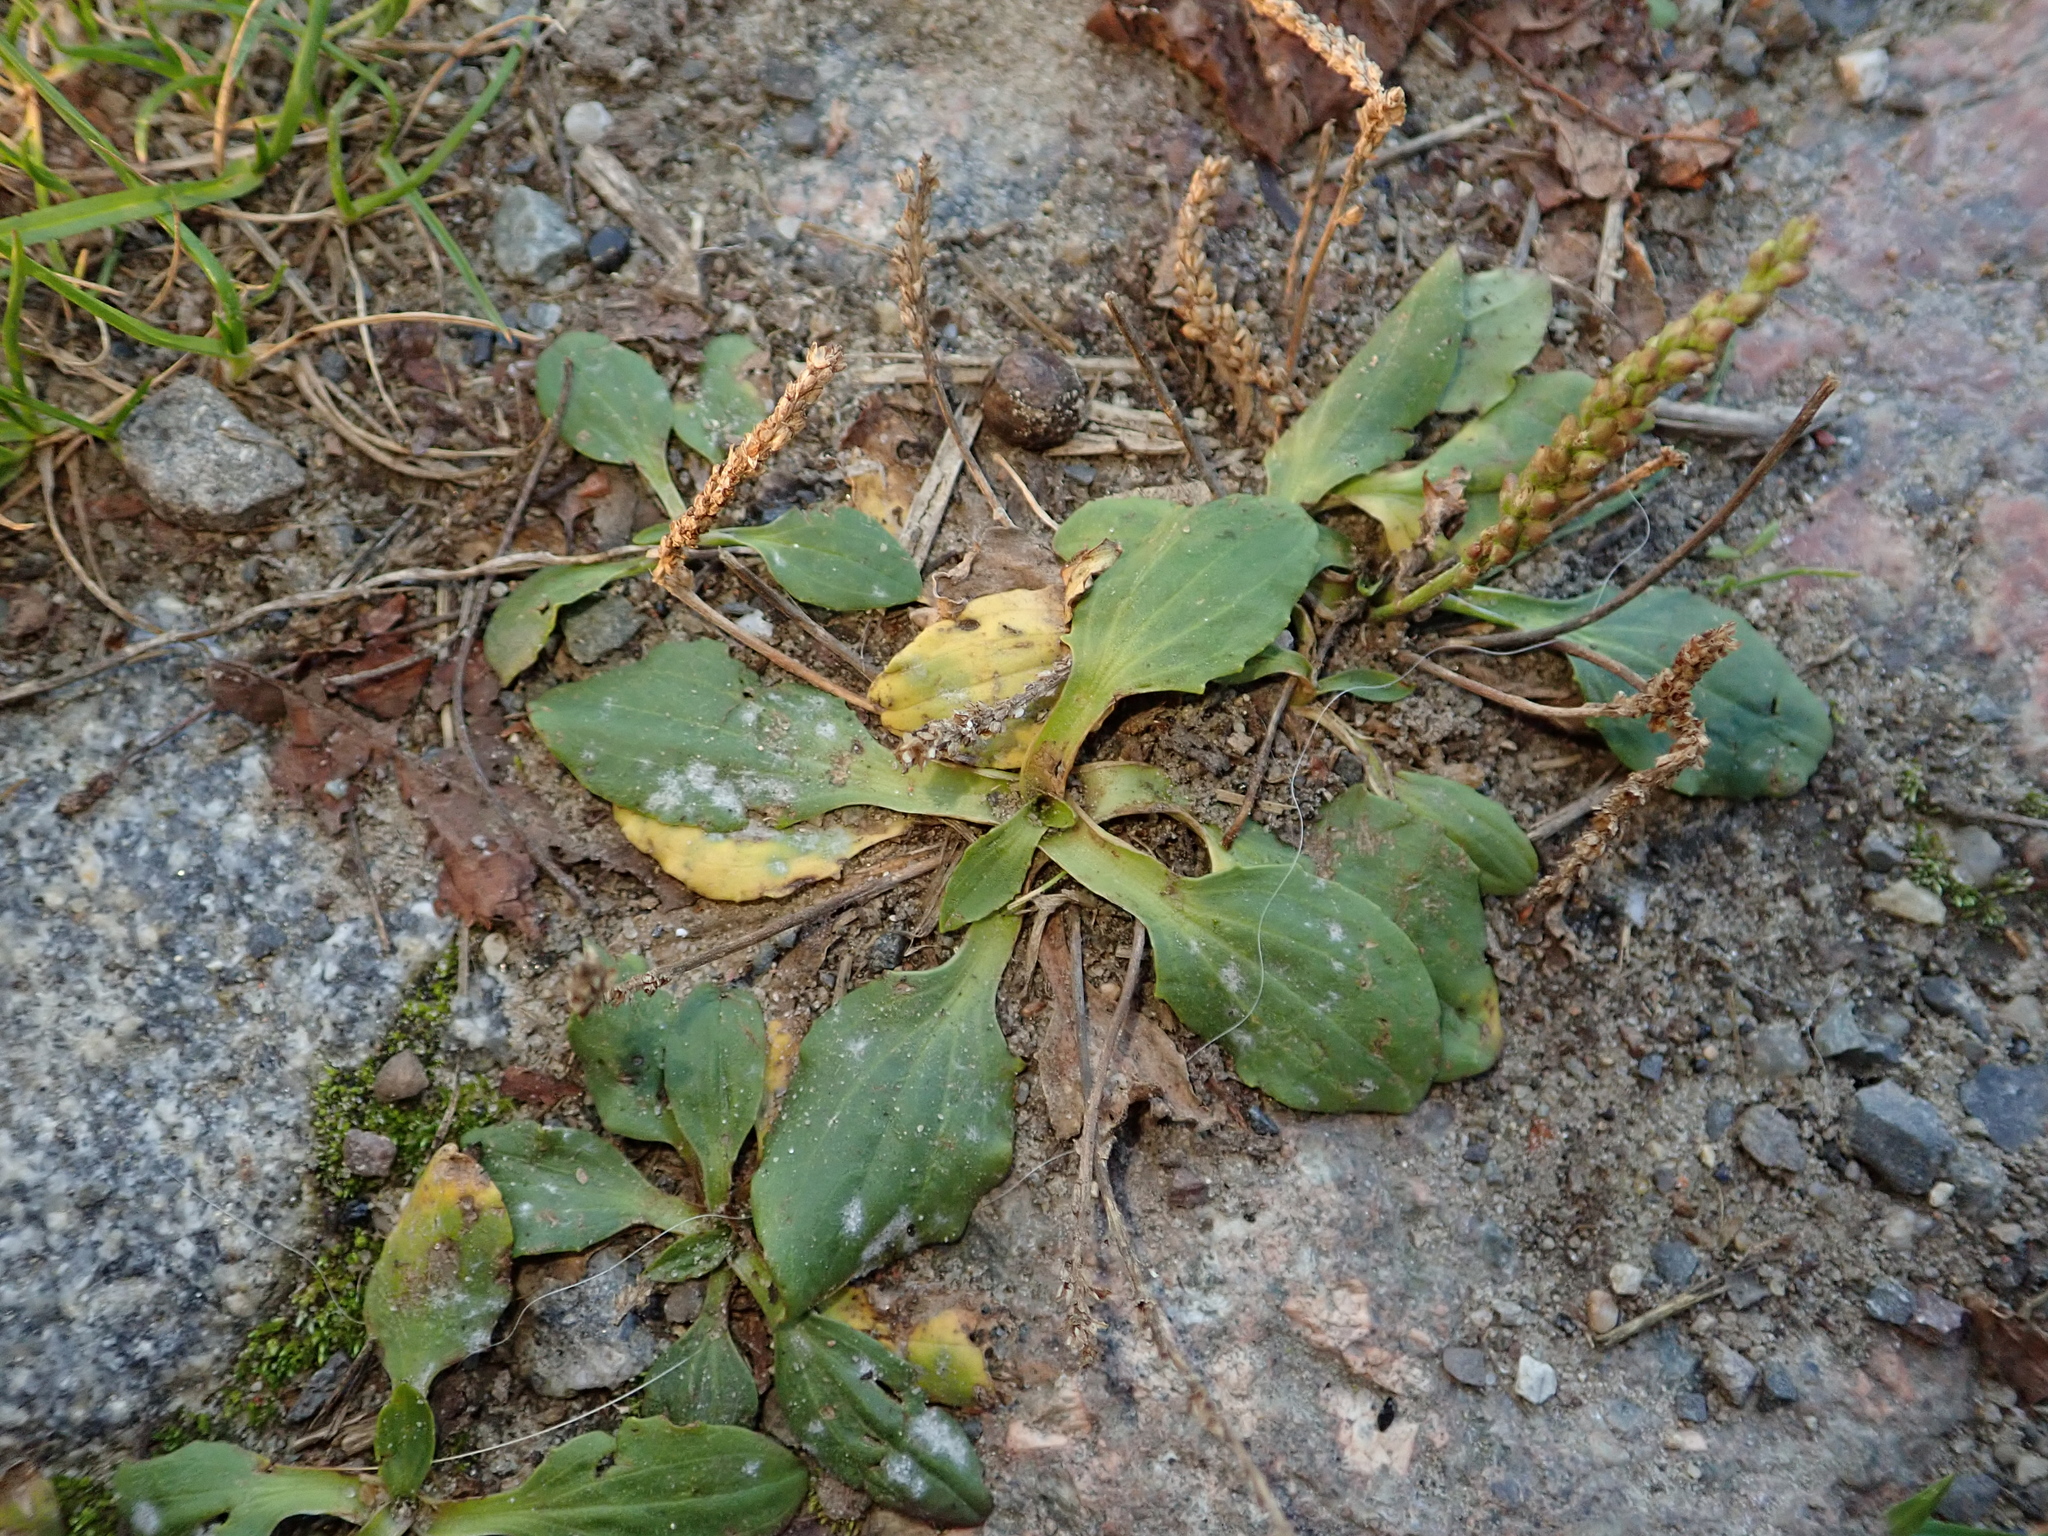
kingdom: Plantae
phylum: Tracheophyta
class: Magnoliopsida
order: Lamiales
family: Plantaginaceae
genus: Plantago
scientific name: Plantago major
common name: Common plantain
